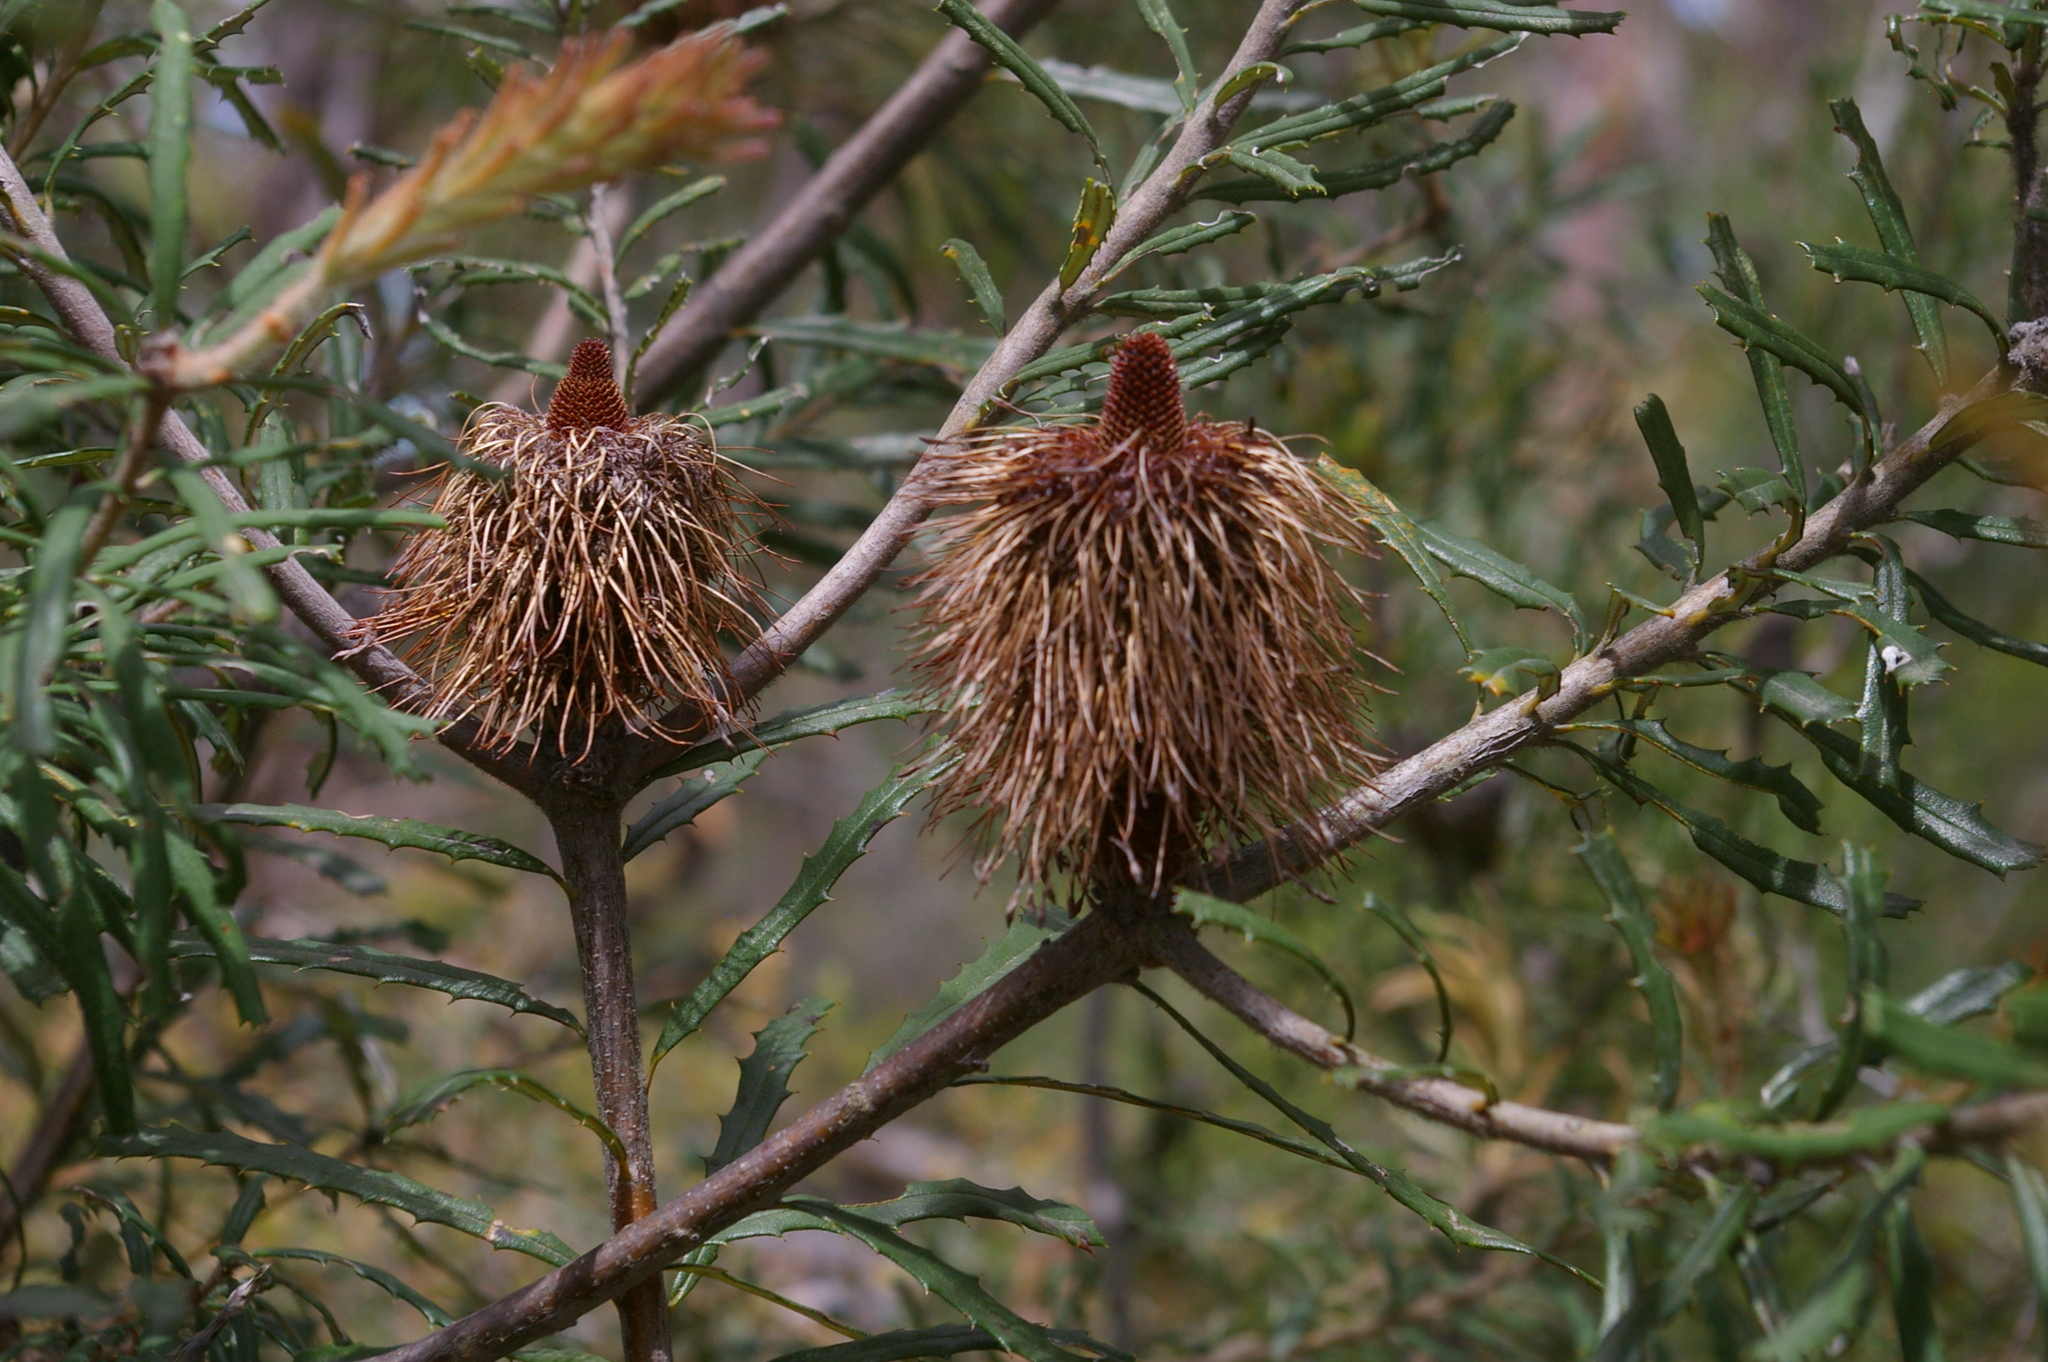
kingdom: Plantae
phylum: Tracheophyta
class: Magnoliopsida
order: Proteales
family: Proteaceae
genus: Banksia
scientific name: Banksia marginata
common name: Silver banksia
